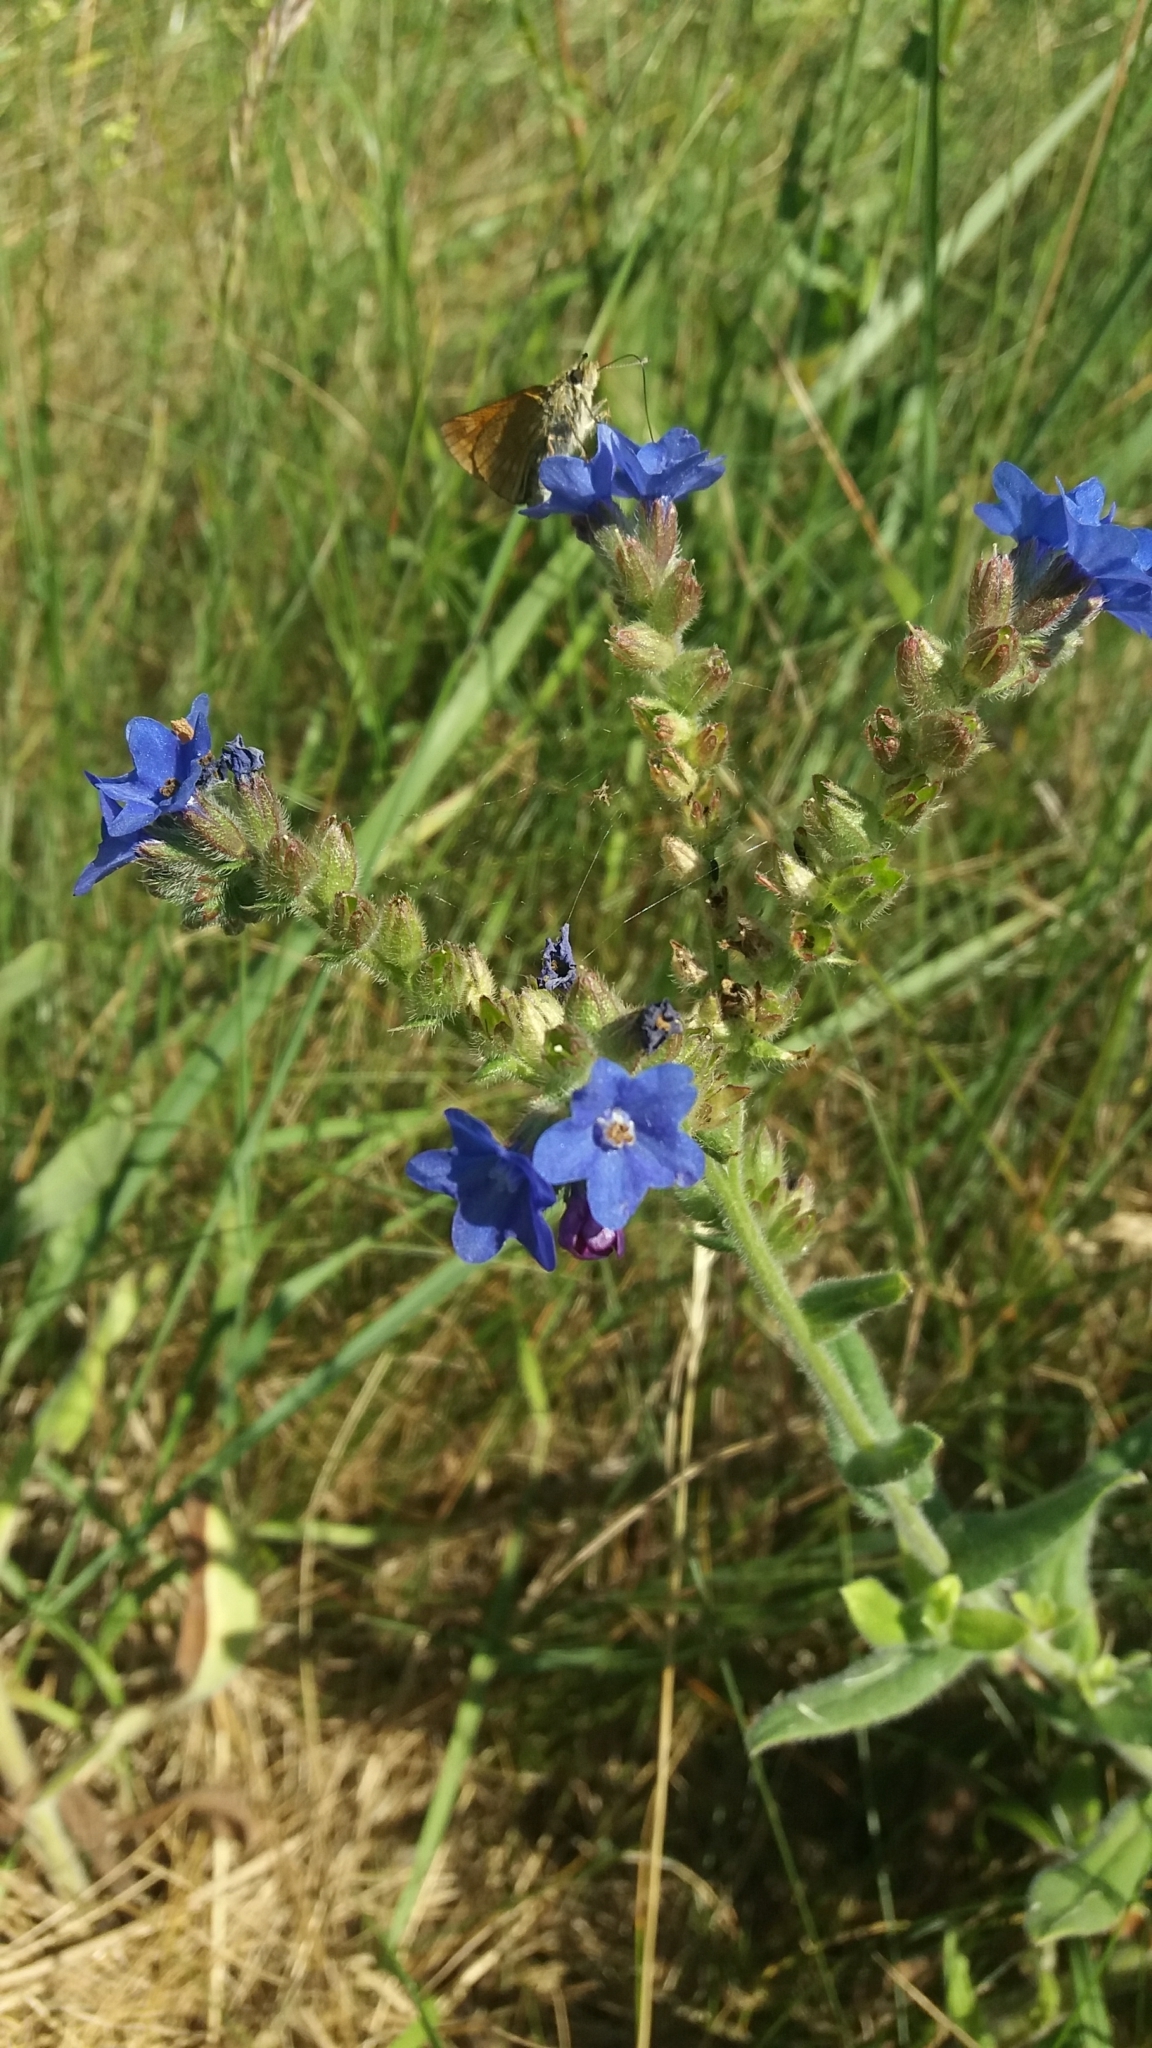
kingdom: Plantae
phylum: Tracheophyta
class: Magnoliopsida
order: Boraginales
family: Boraginaceae
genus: Anchusa
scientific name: Anchusa officinalis
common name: Alkanet
